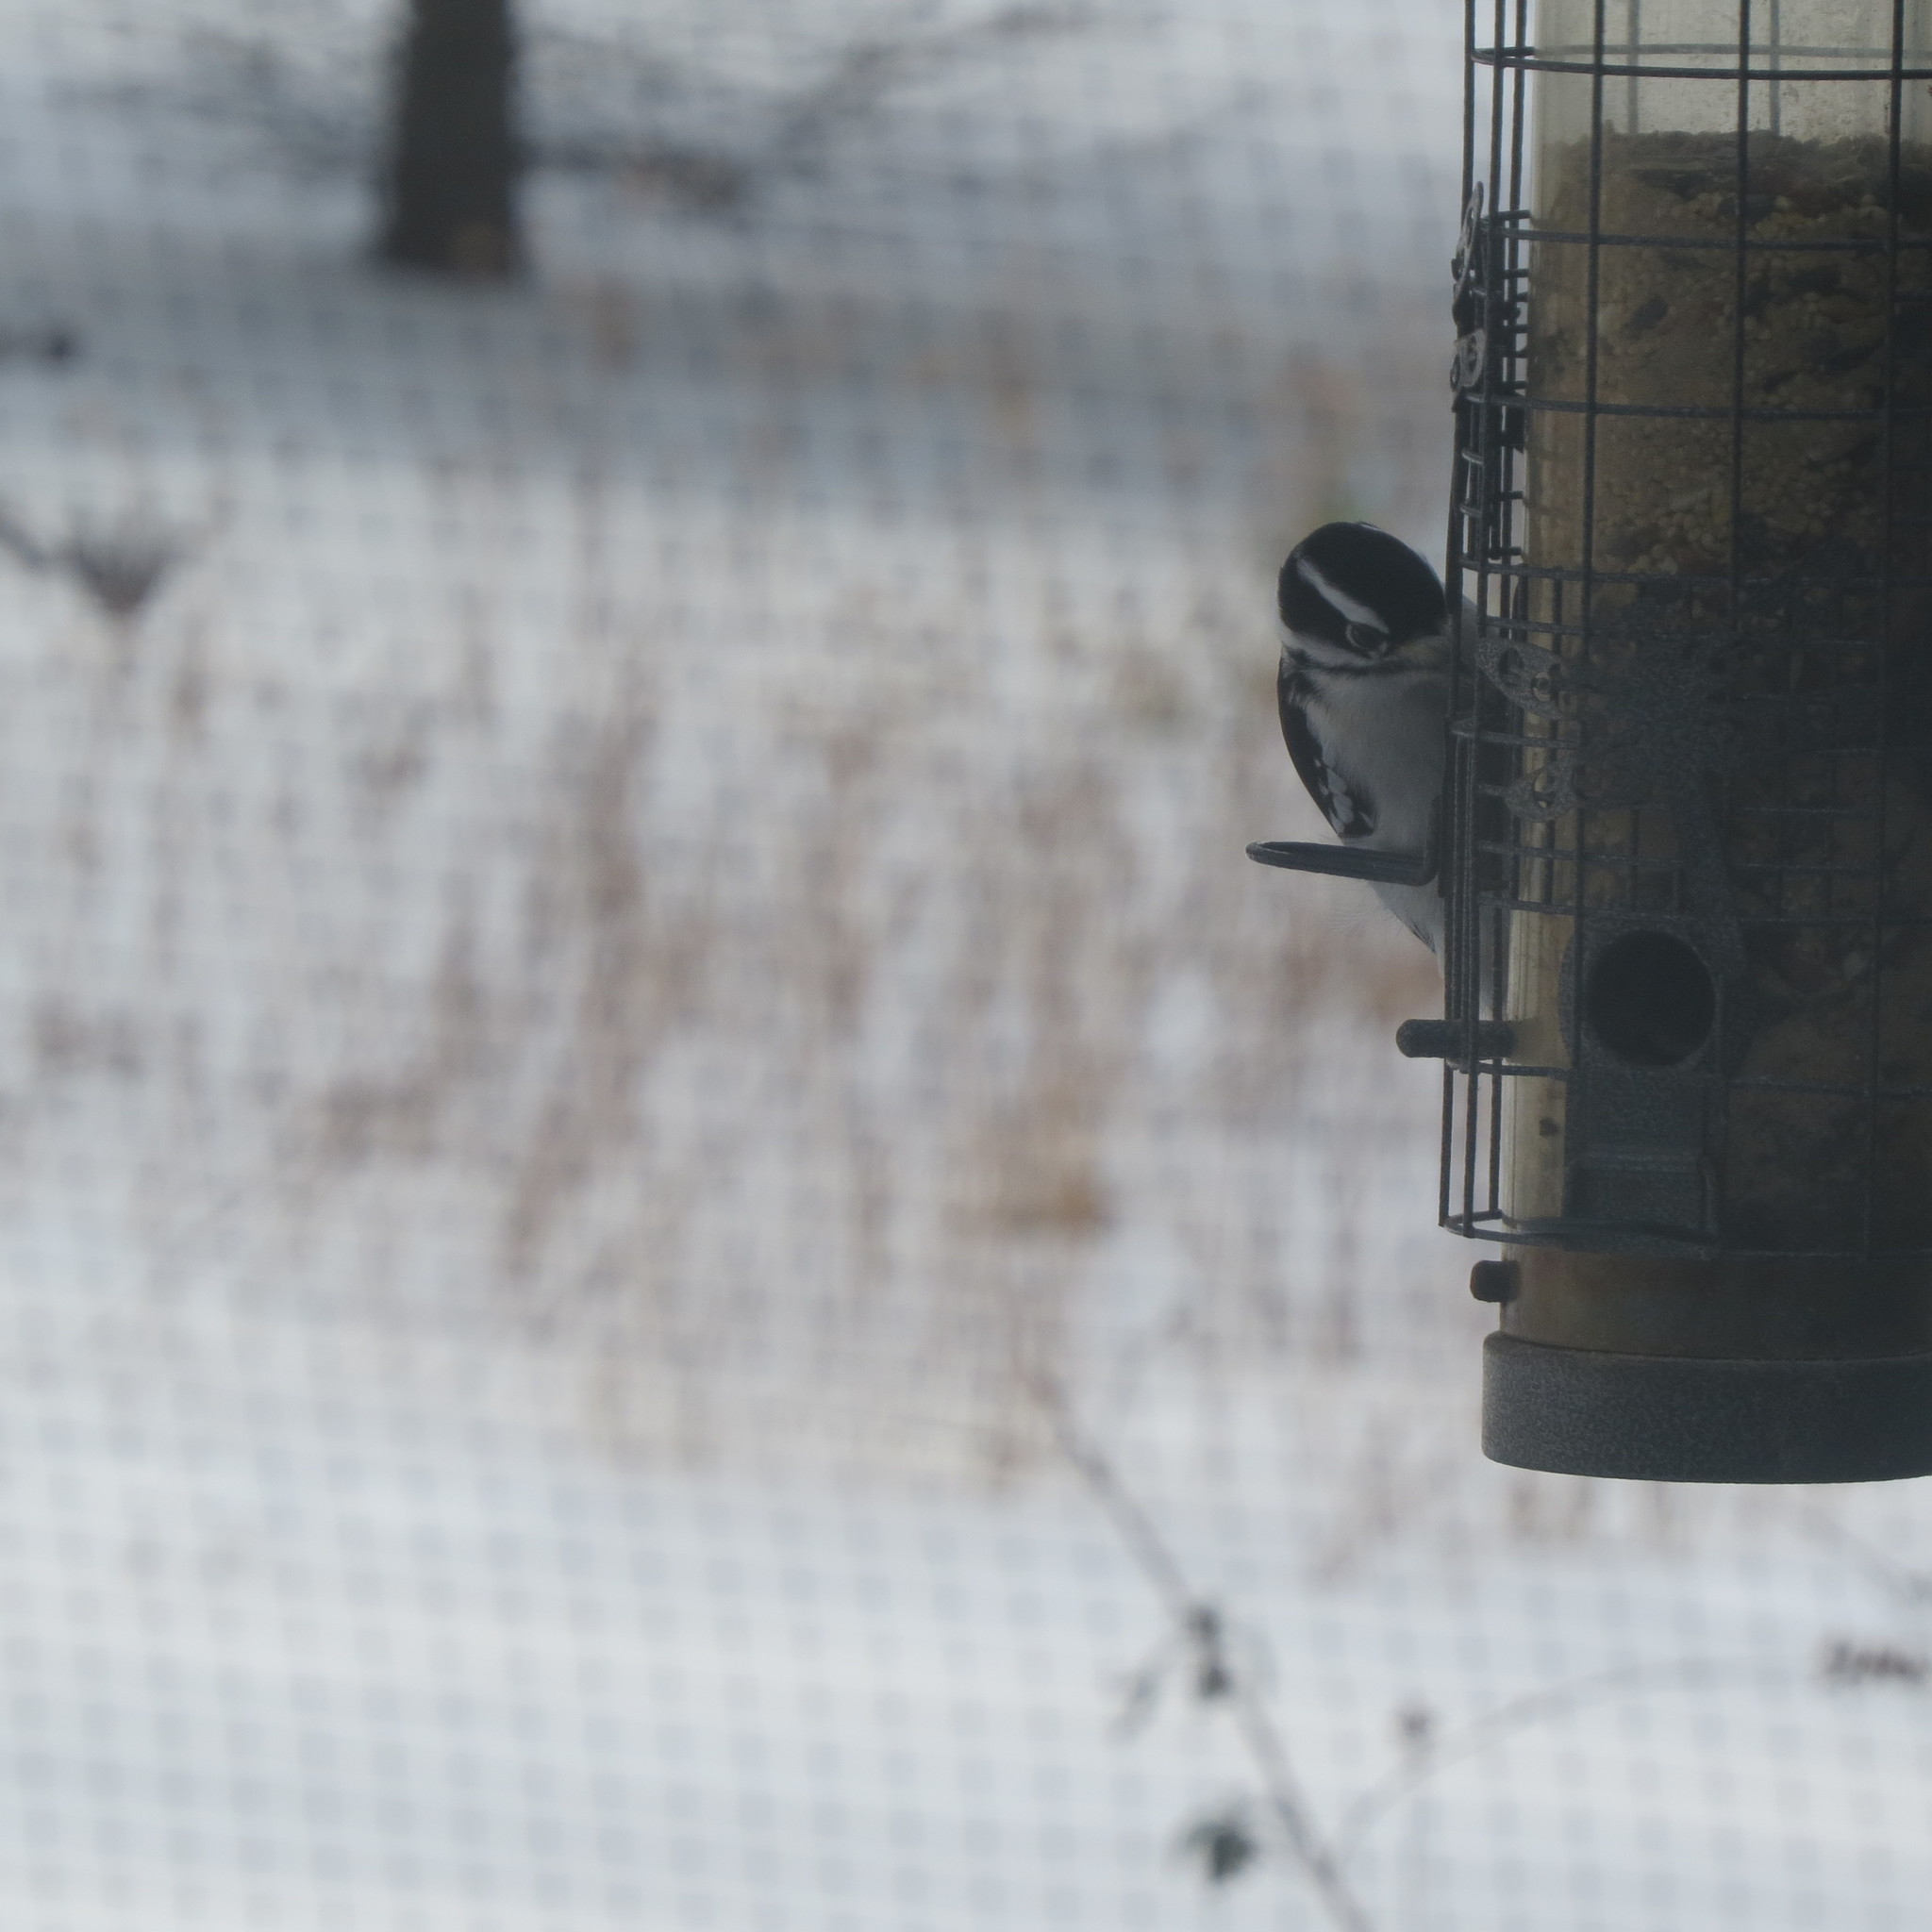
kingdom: Animalia
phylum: Chordata
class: Aves
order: Piciformes
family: Picidae
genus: Dryobates
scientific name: Dryobates pubescens
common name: Downy woodpecker
